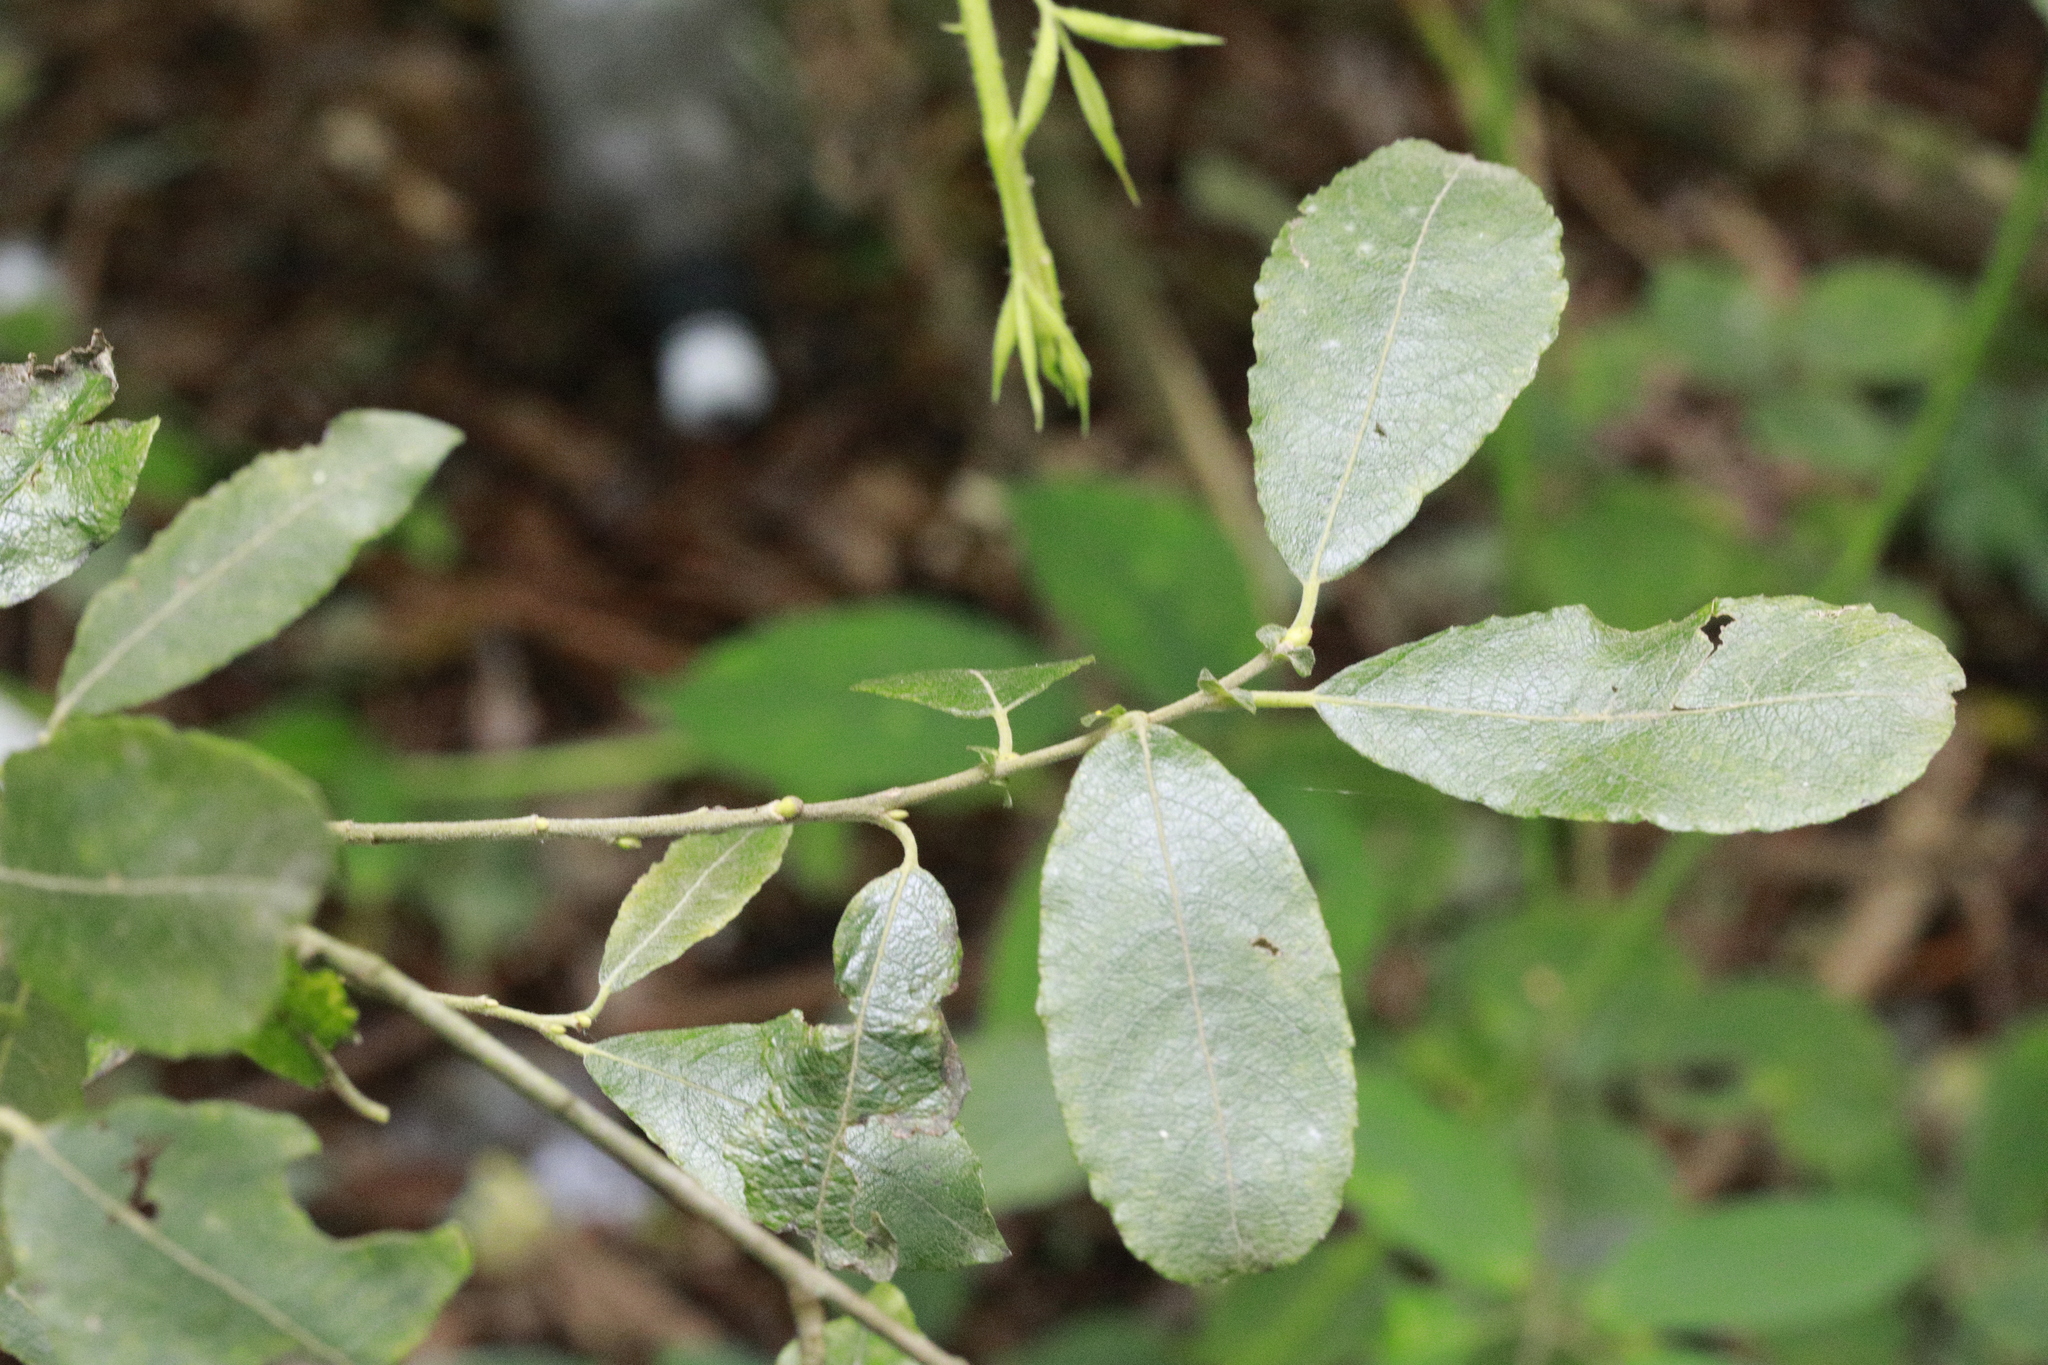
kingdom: Plantae
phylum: Tracheophyta
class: Magnoliopsida
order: Malpighiales
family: Salicaceae
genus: Salix
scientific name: Salix cinerea
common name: Common sallow
